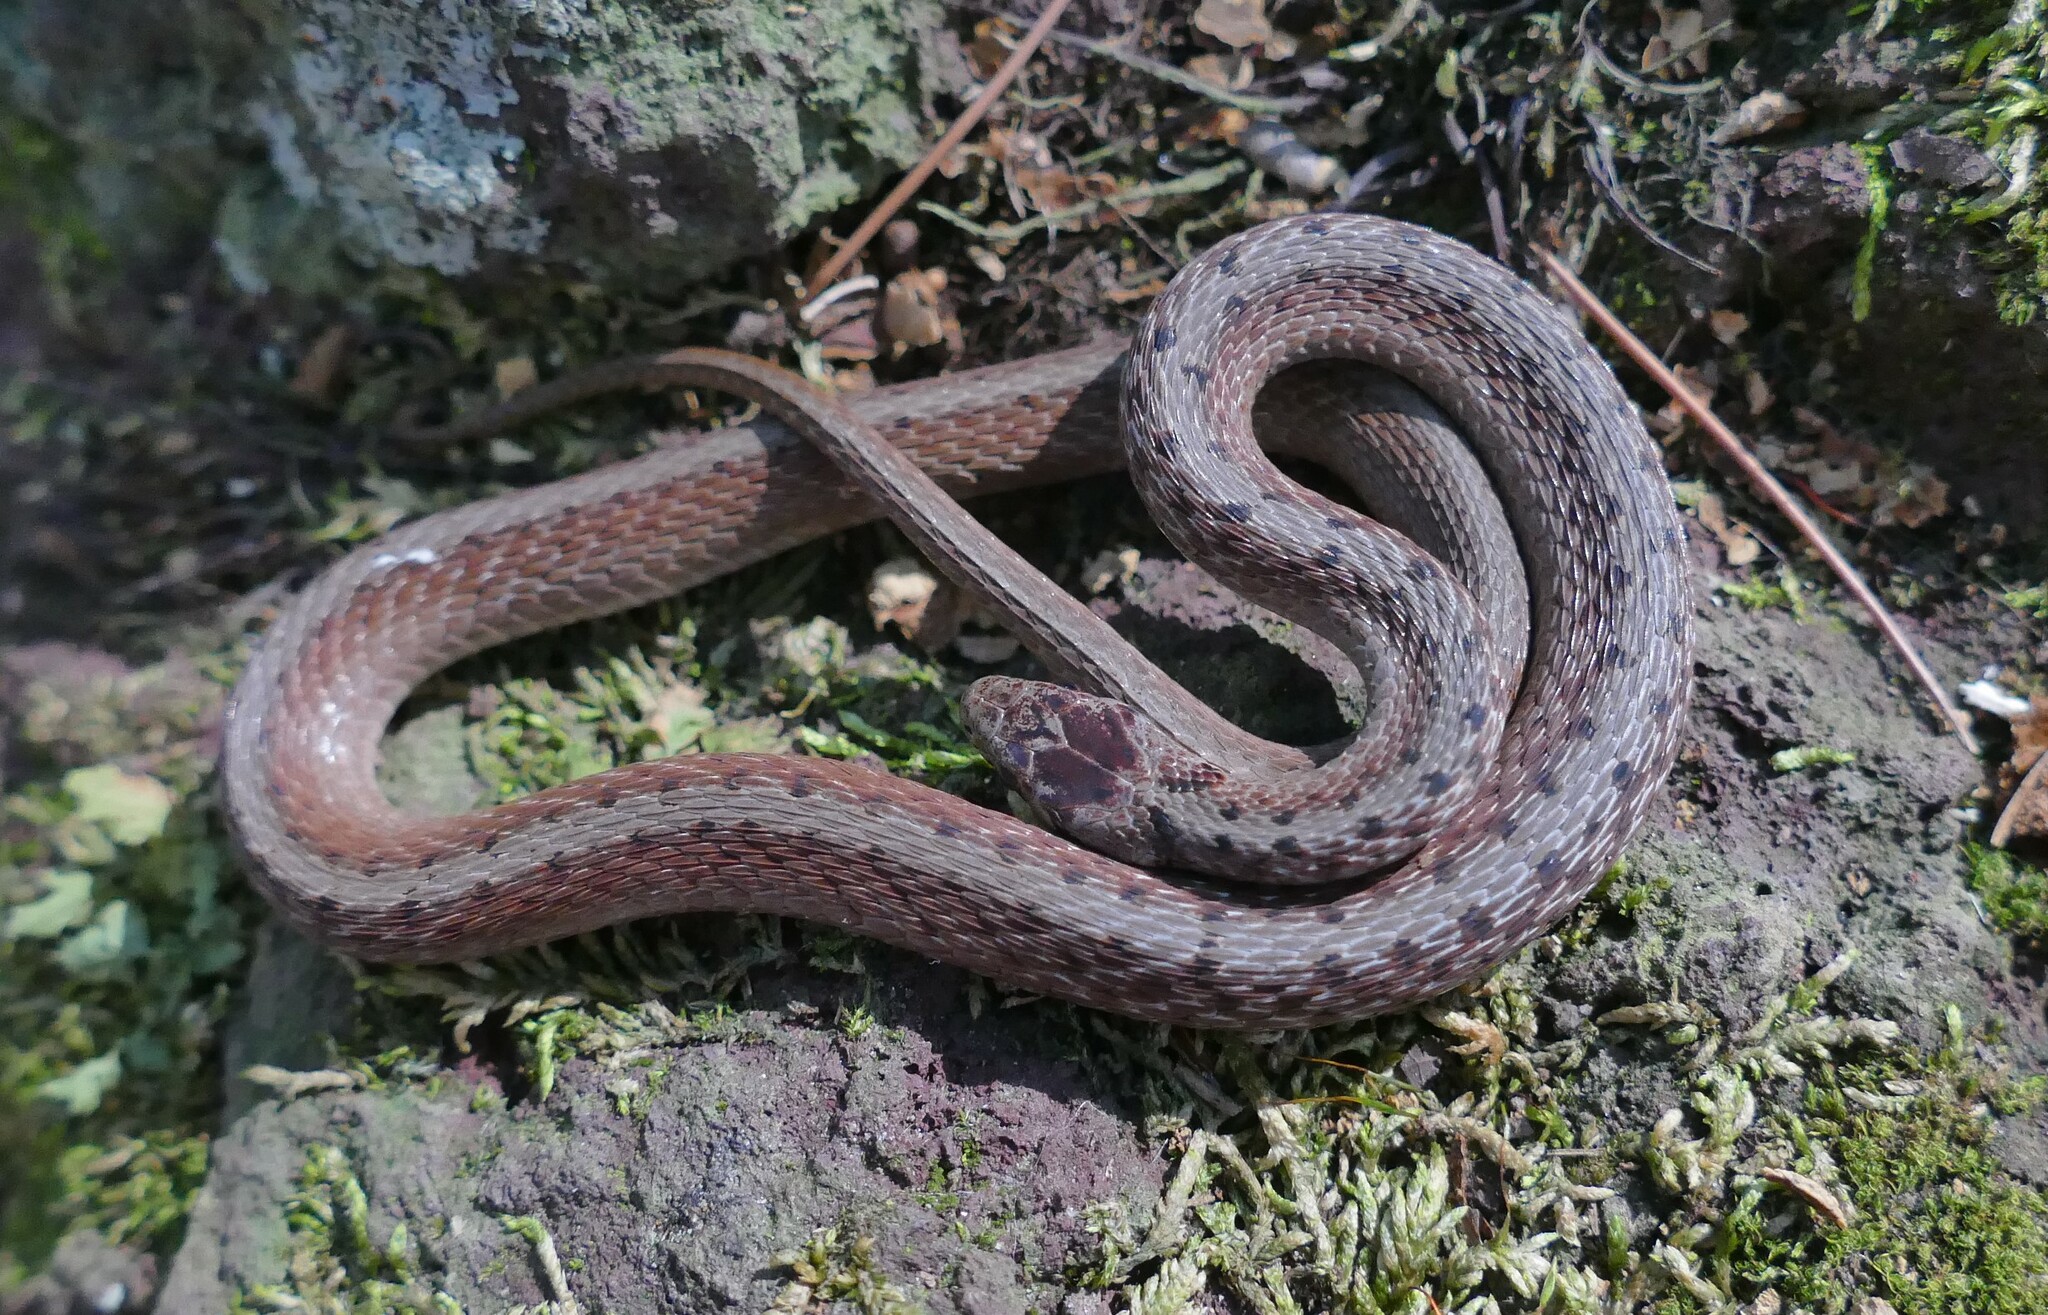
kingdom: Animalia
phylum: Chordata
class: Squamata
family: Colubridae
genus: Storeria
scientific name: Storeria dekayi
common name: (dekay’s) brown snake
